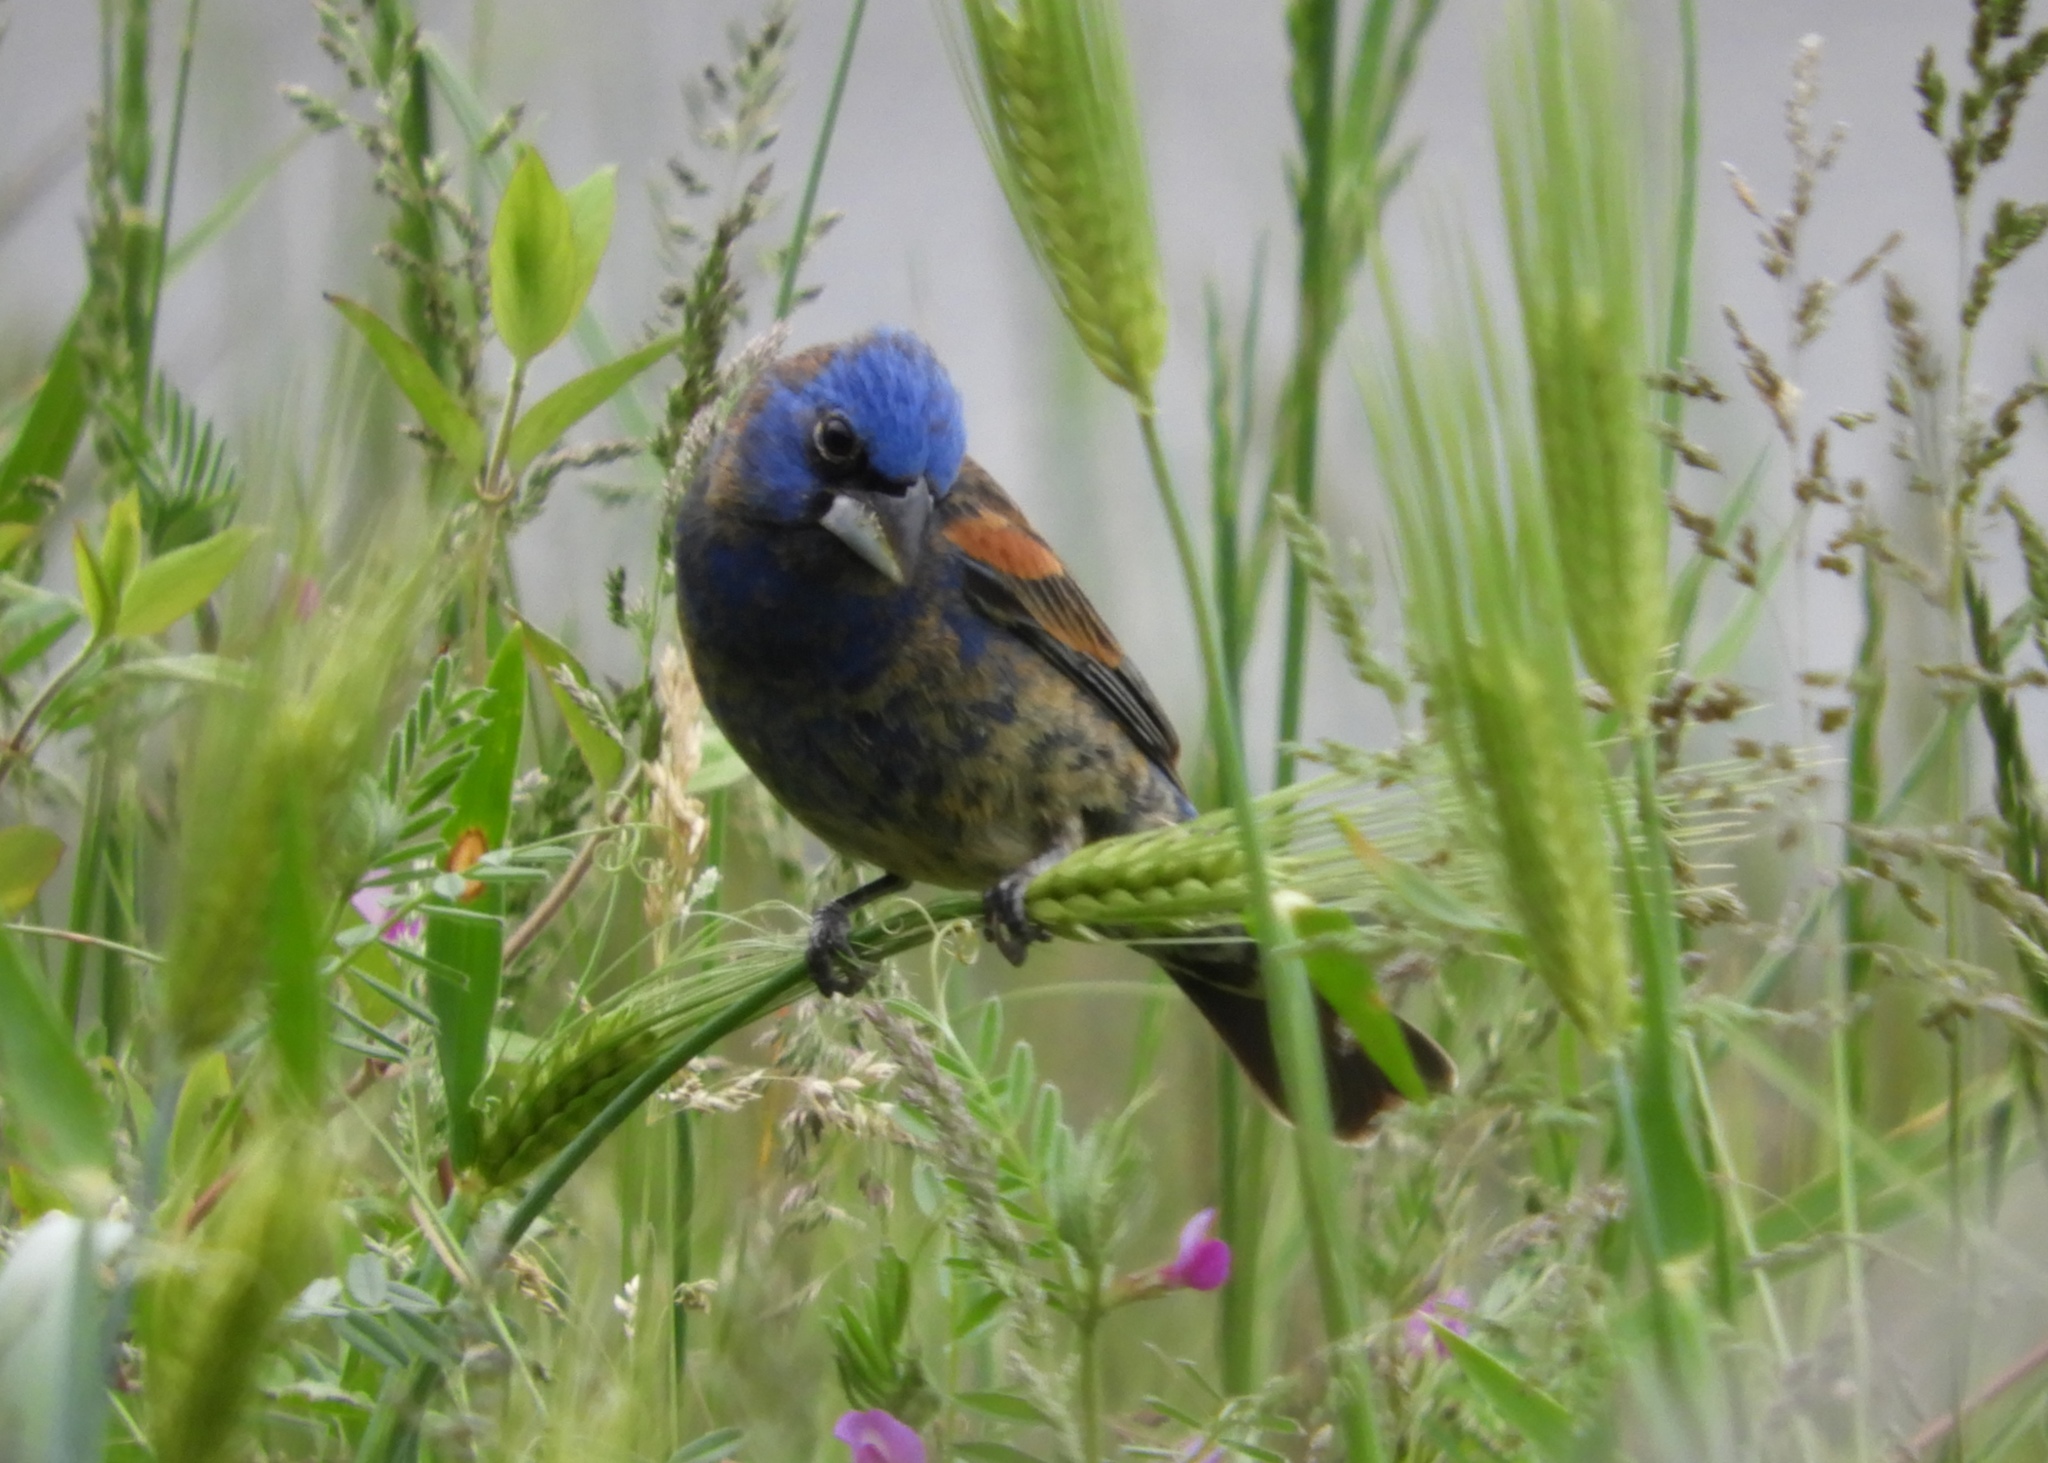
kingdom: Animalia
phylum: Chordata
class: Aves
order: Passeriformes
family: Cardinalidae
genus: Passerina
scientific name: Passerina caerulea
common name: Blue grosbeak
